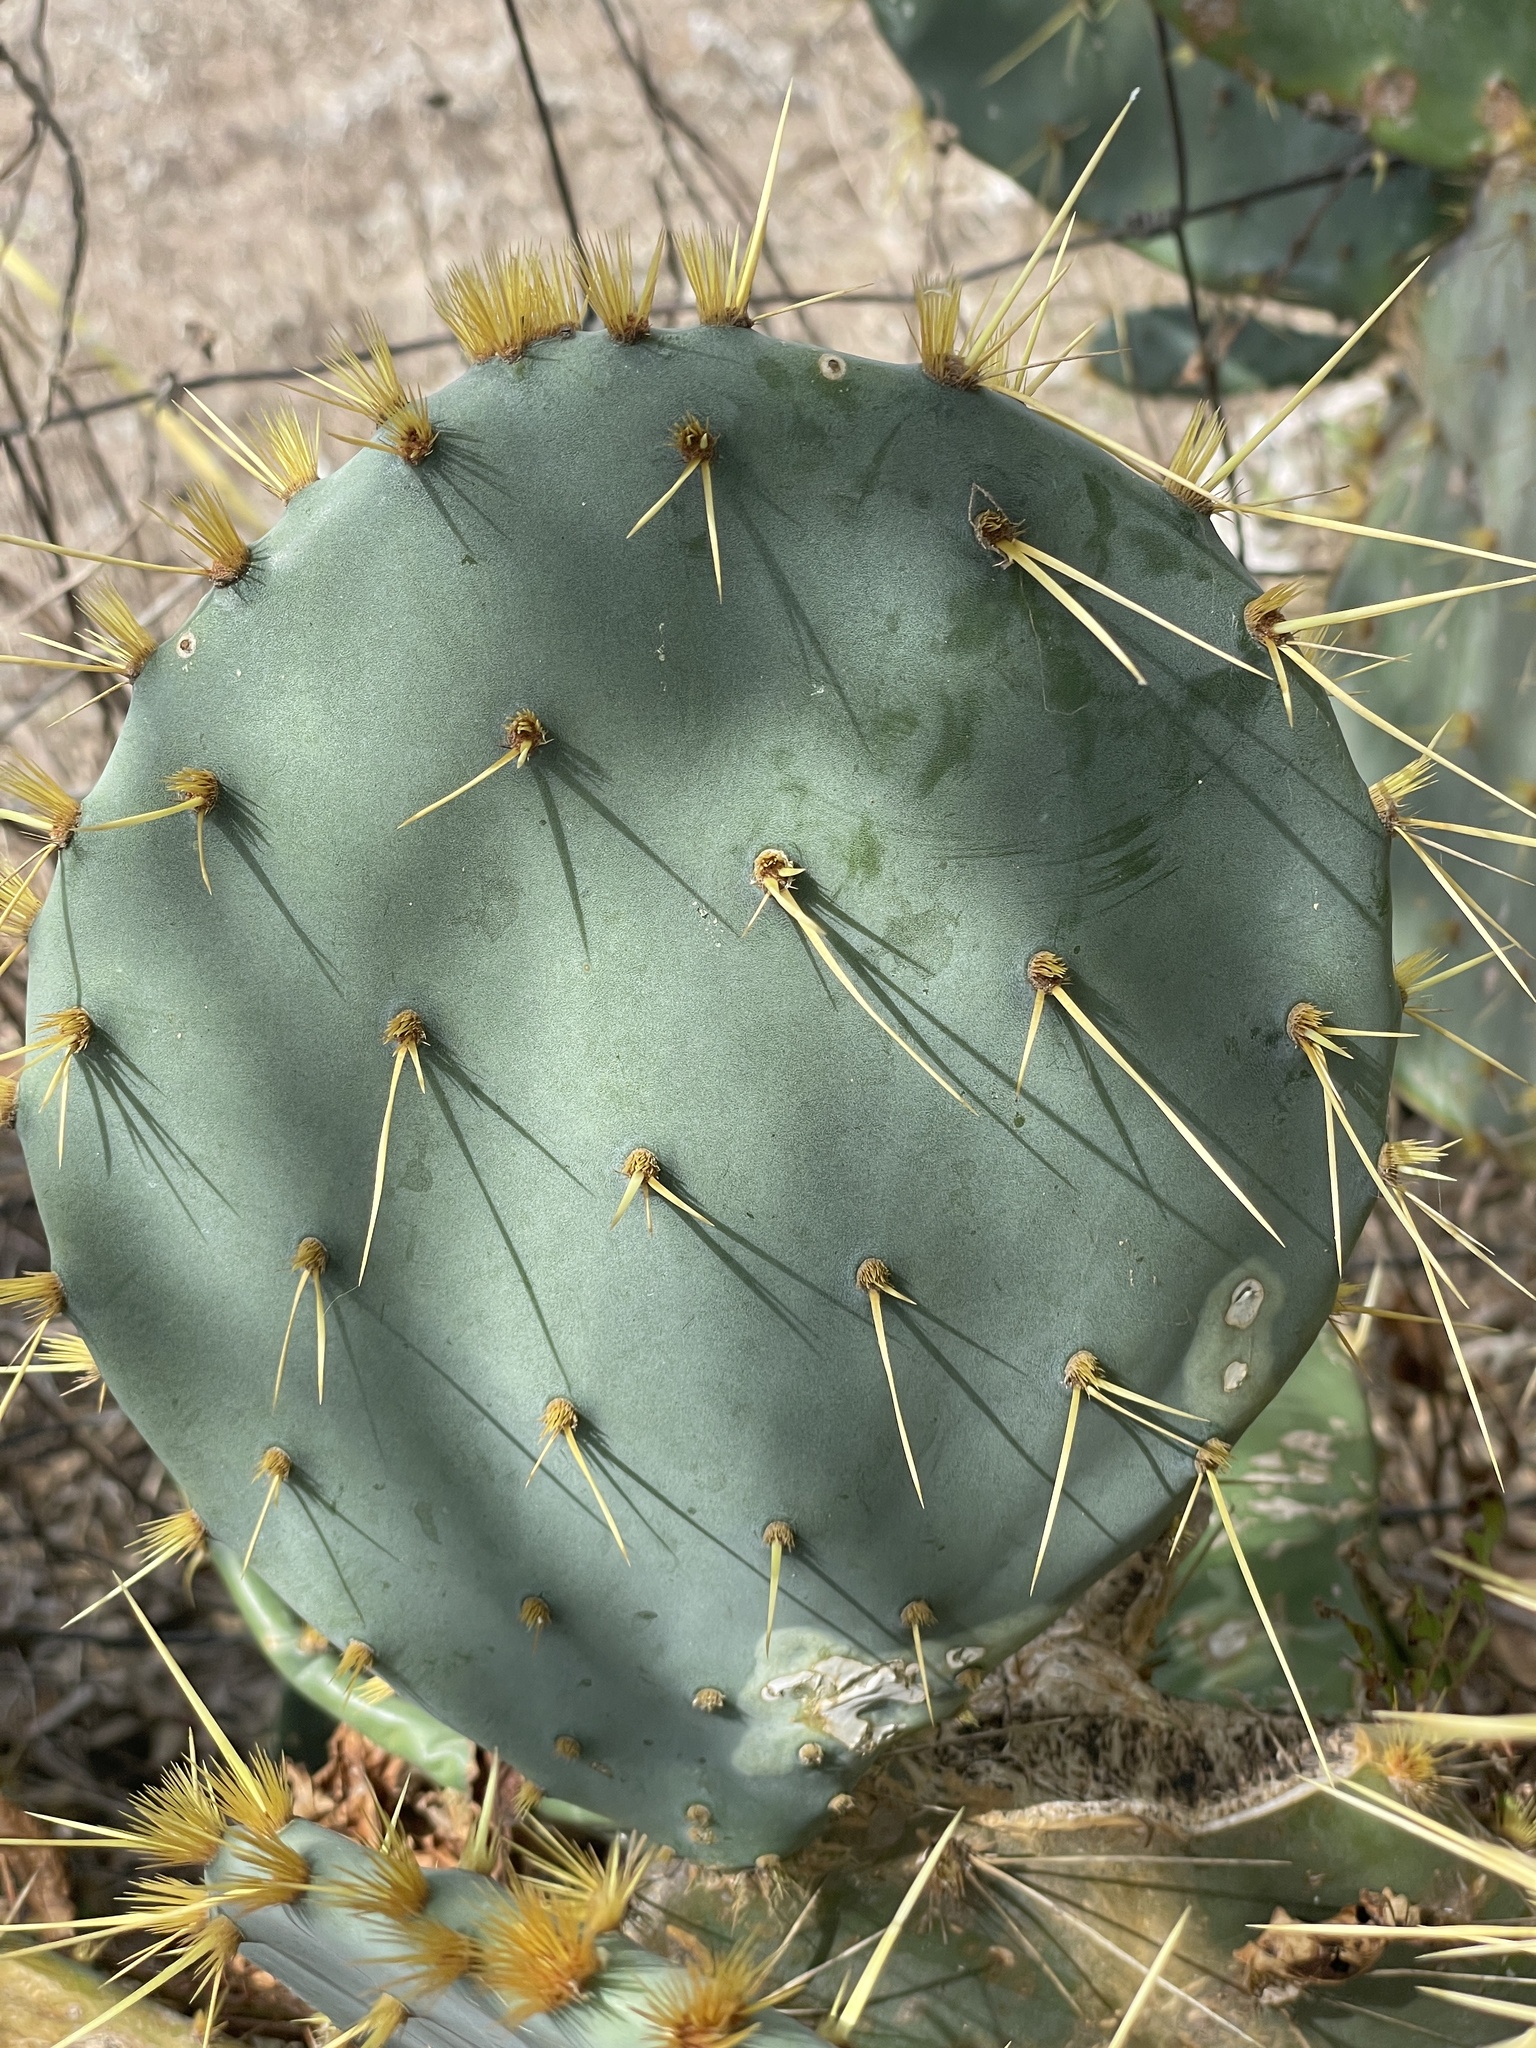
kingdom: Plantae
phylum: Tracheophyta
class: Magnoliopsida
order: Caryophyllales
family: Cactaceae
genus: Opuntia
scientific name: Opuntia engelmannii
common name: Cactus-apple
